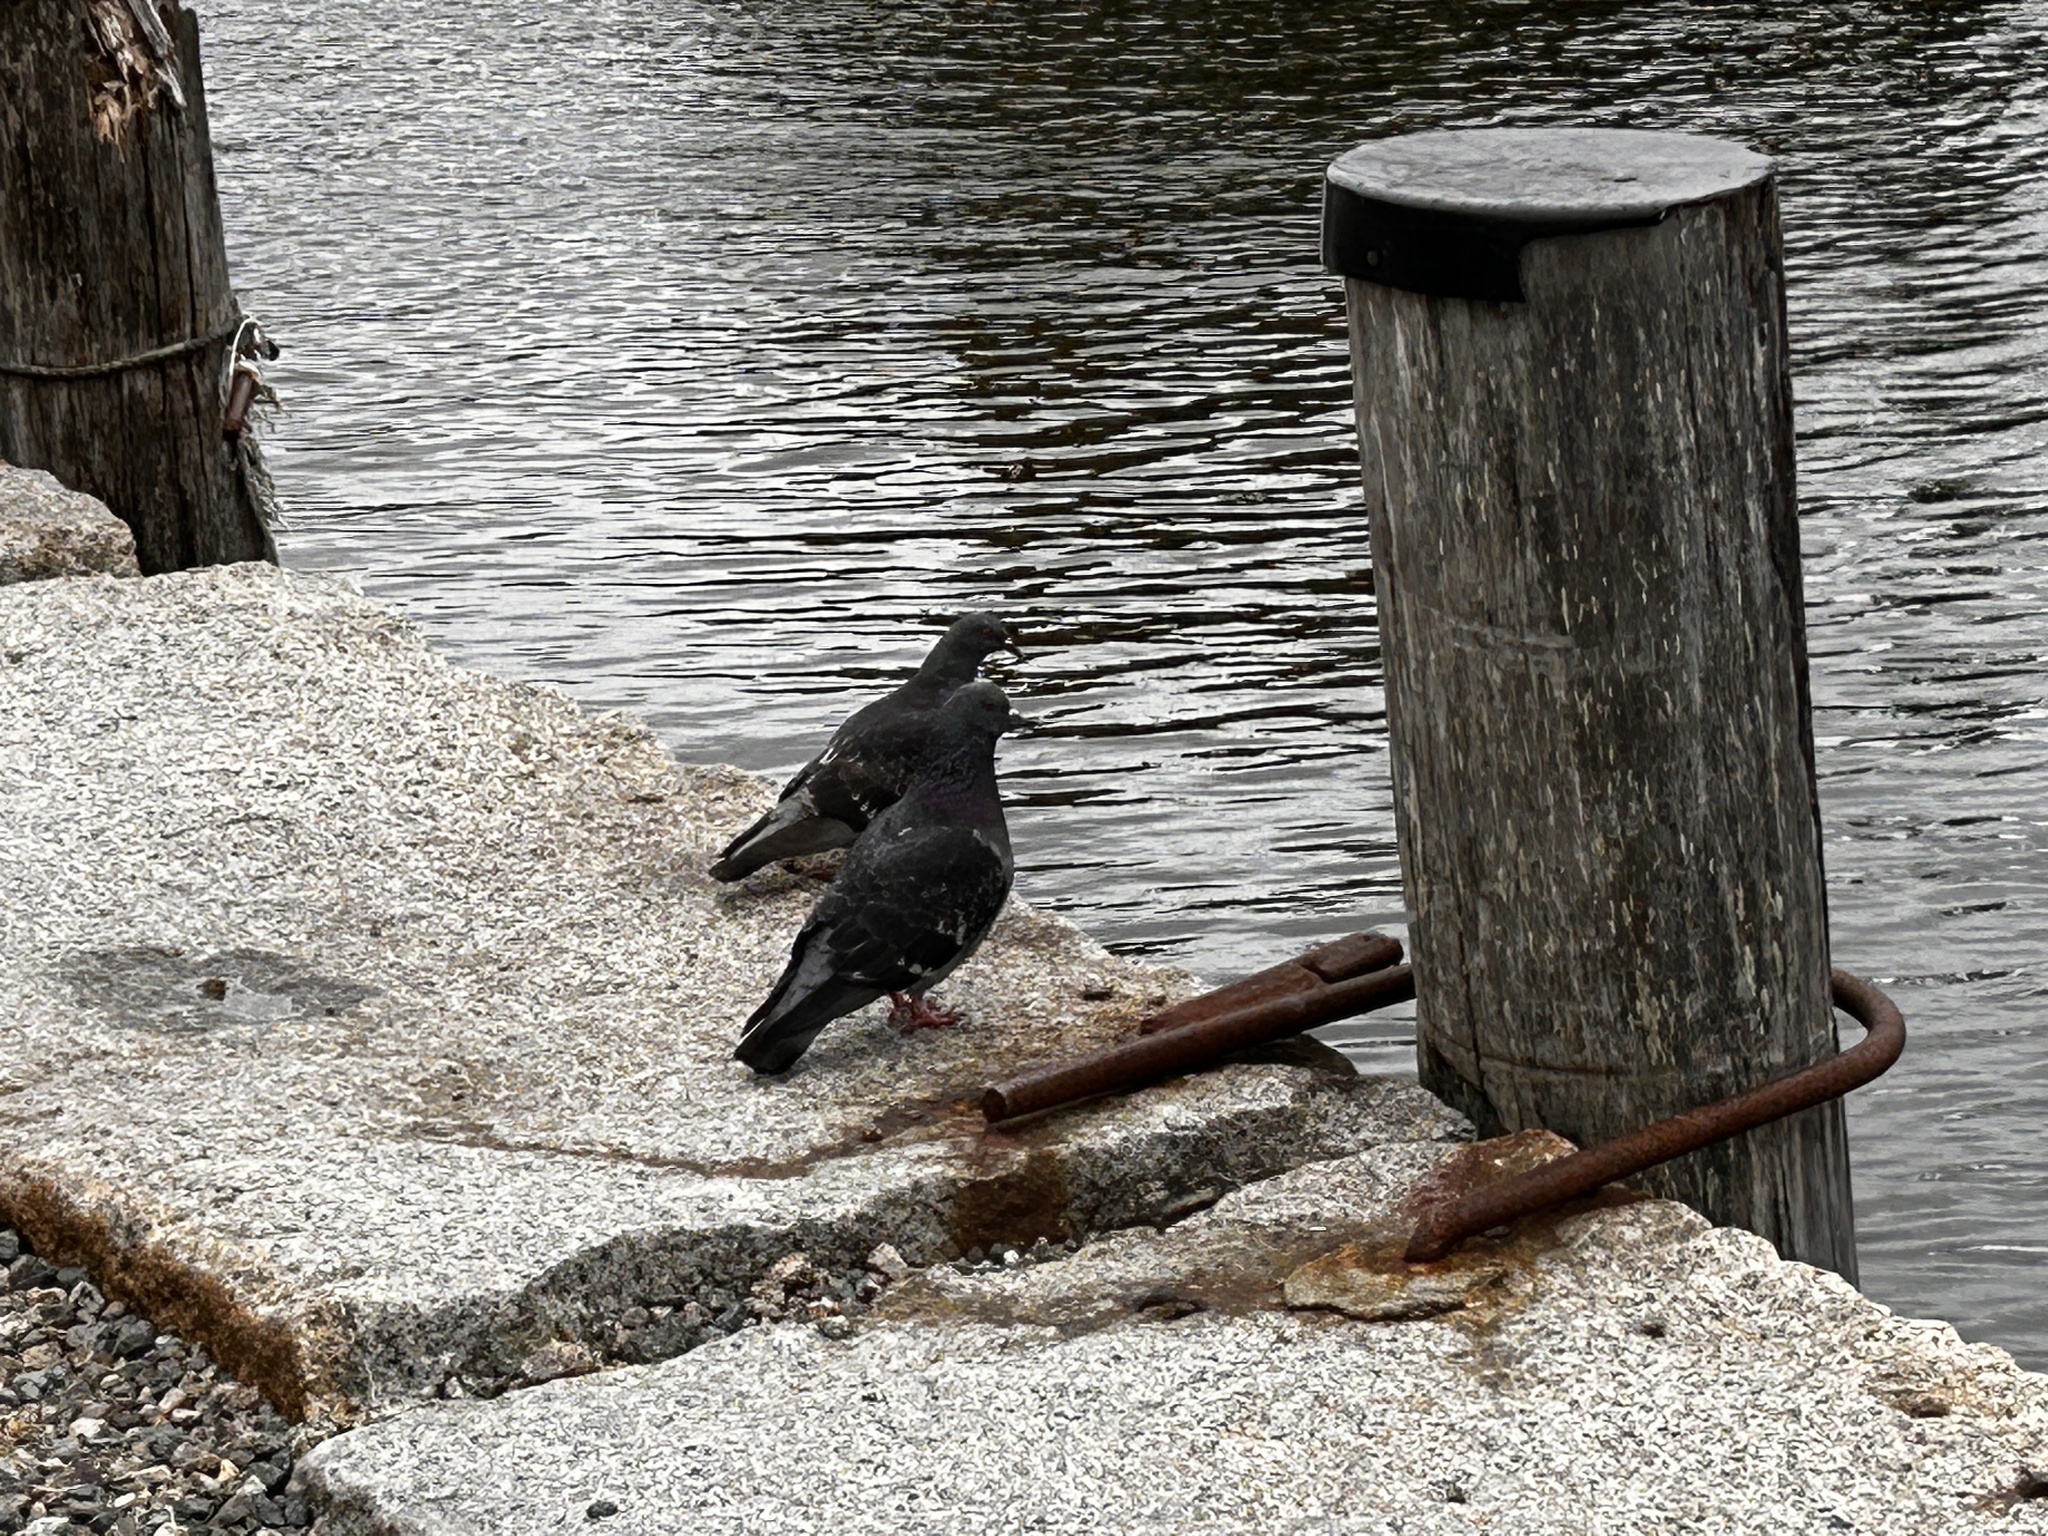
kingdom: Animalia
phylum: Chordata
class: Aves
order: Columbiformes
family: Columbidae
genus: Columba
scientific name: Columba livia
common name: Rock pigeon
